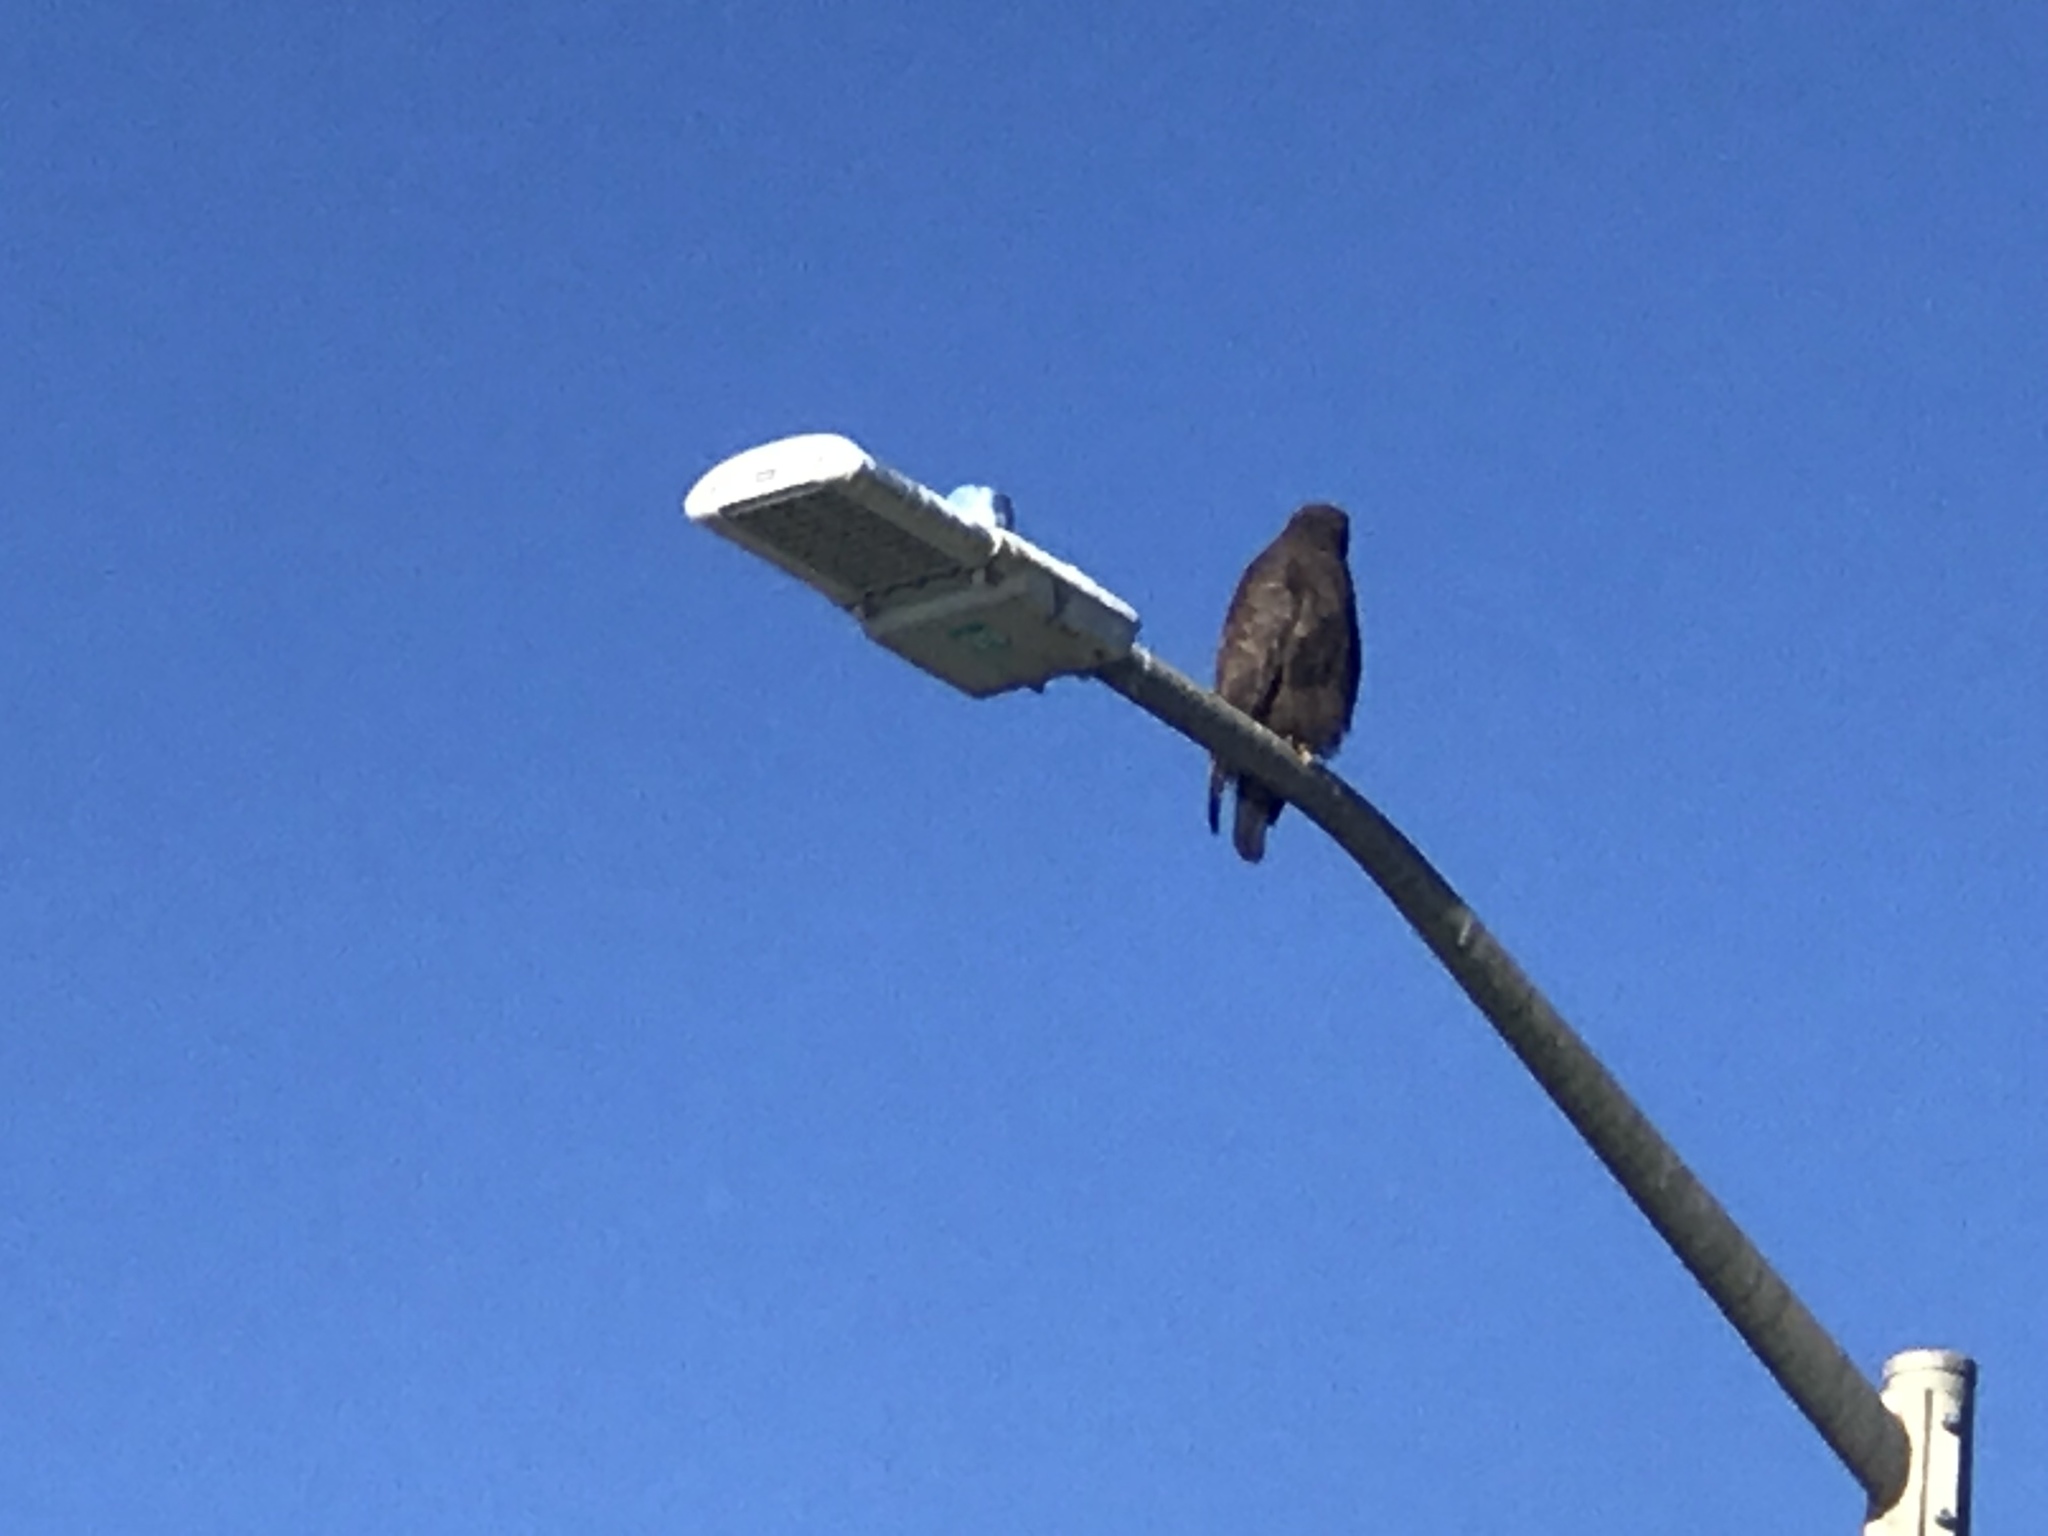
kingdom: Animalia
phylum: Chordata
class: Aves
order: Accipitriformes
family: Accipitridae
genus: Buteo
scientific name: Buteo jamaicensis
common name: Red-tailed hawk
